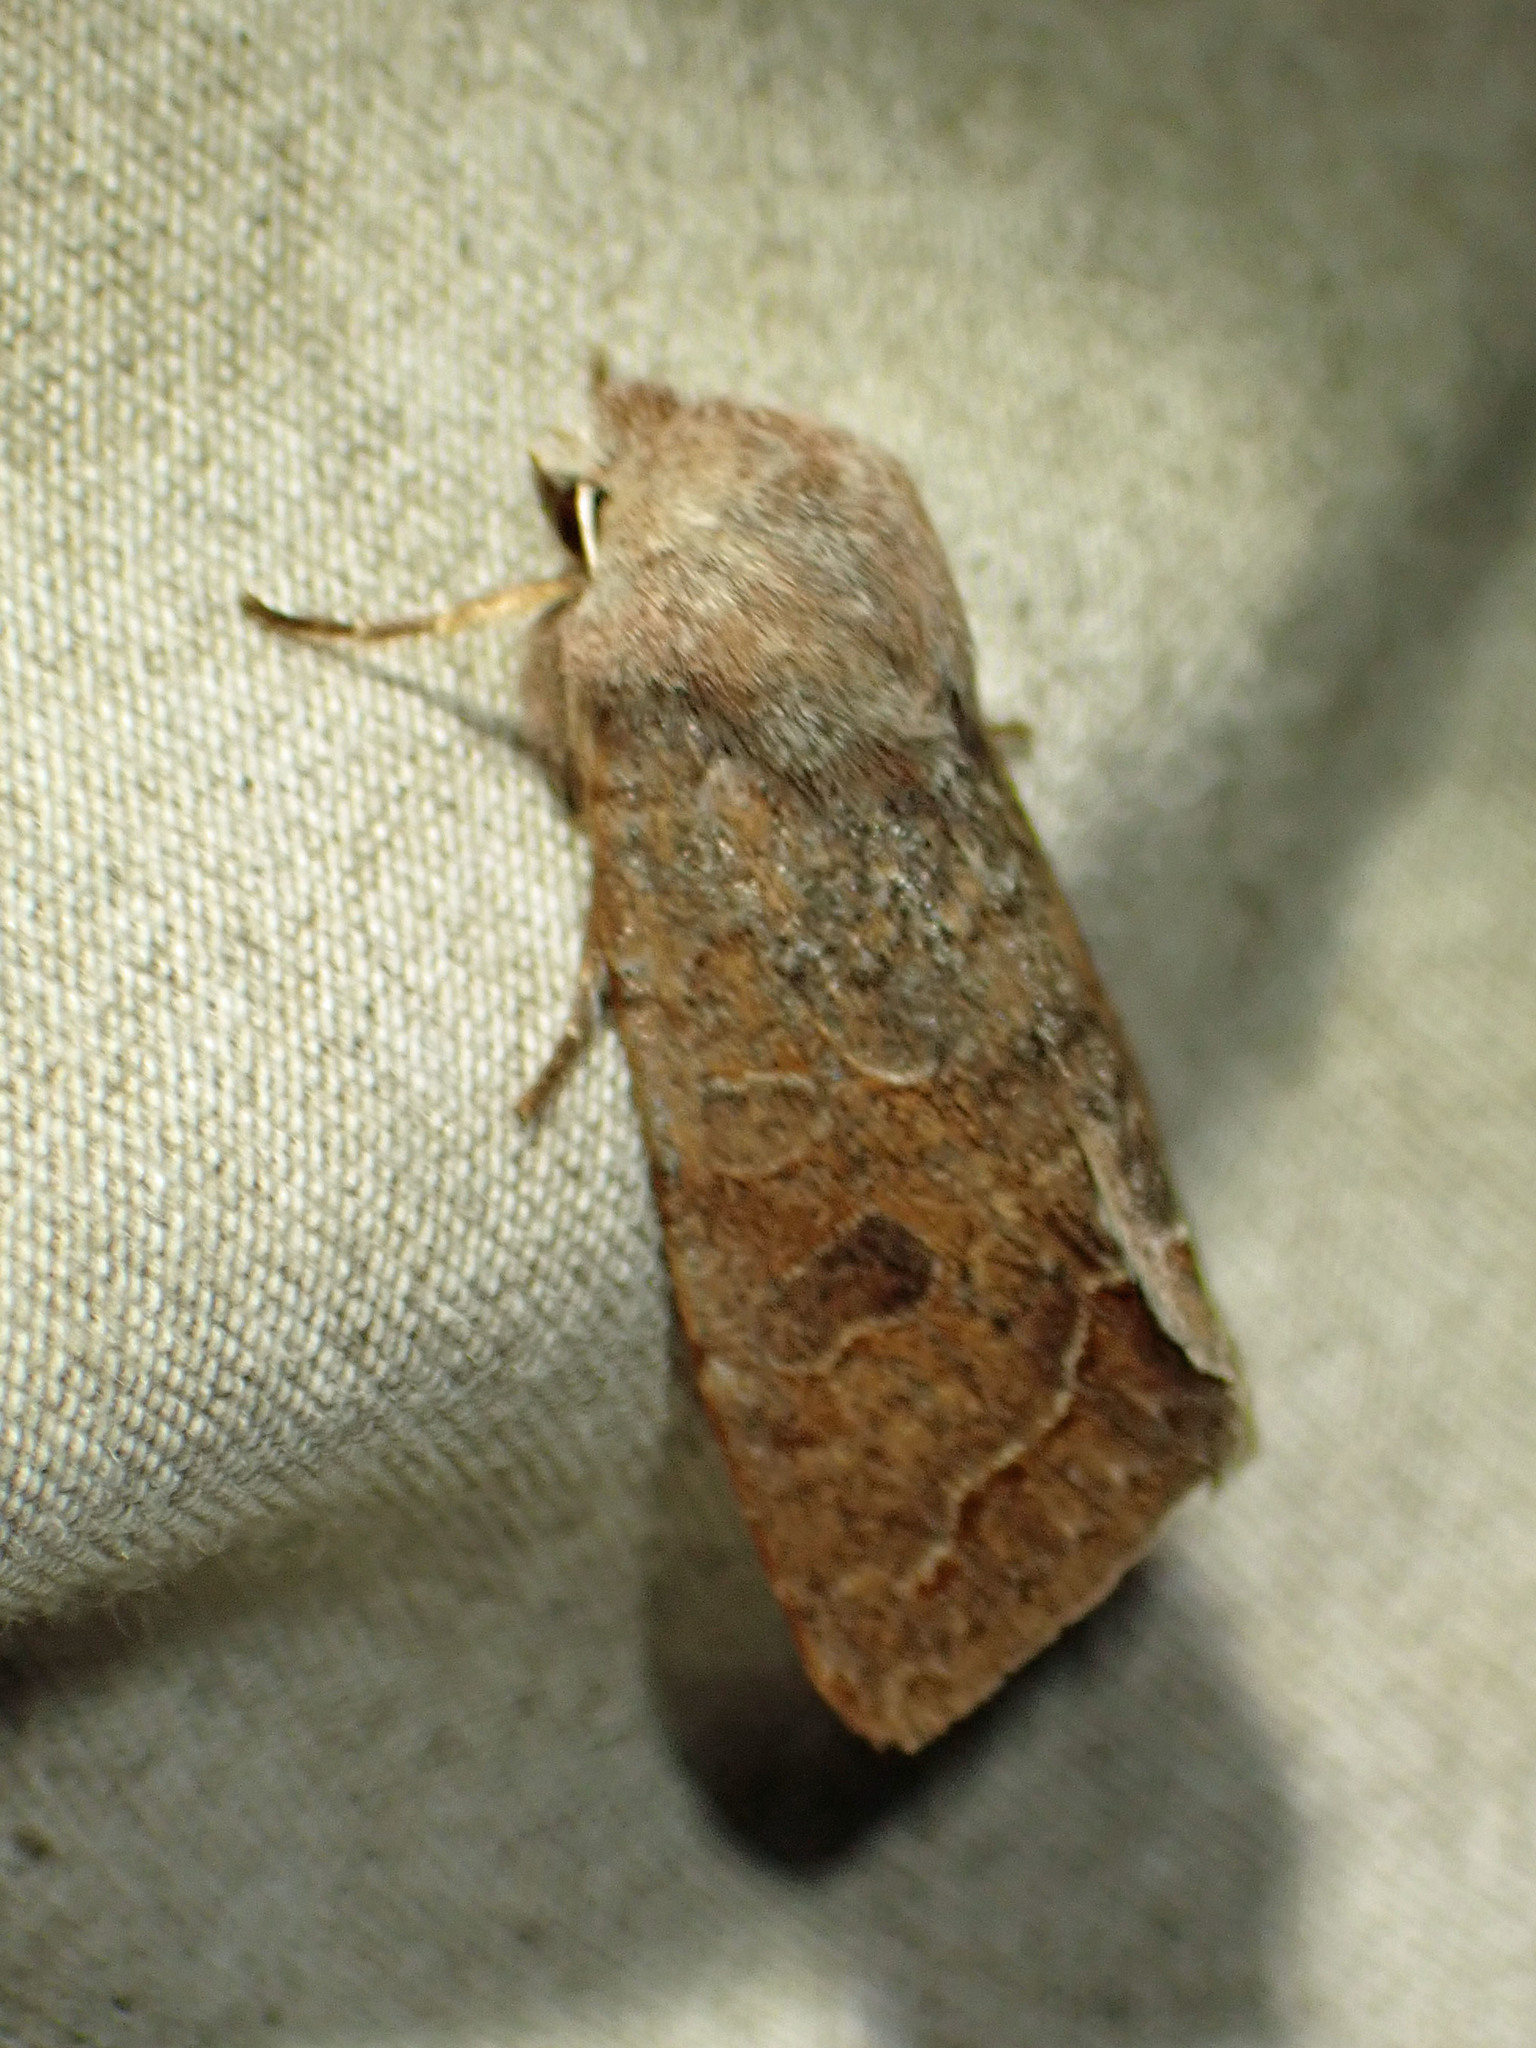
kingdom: Animalia
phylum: Arthropoda
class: Insecta
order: Lepidoptera
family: Noctuidae
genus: Orthosia
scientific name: Orthosia revicta
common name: Rusty whitesided caterpillar
